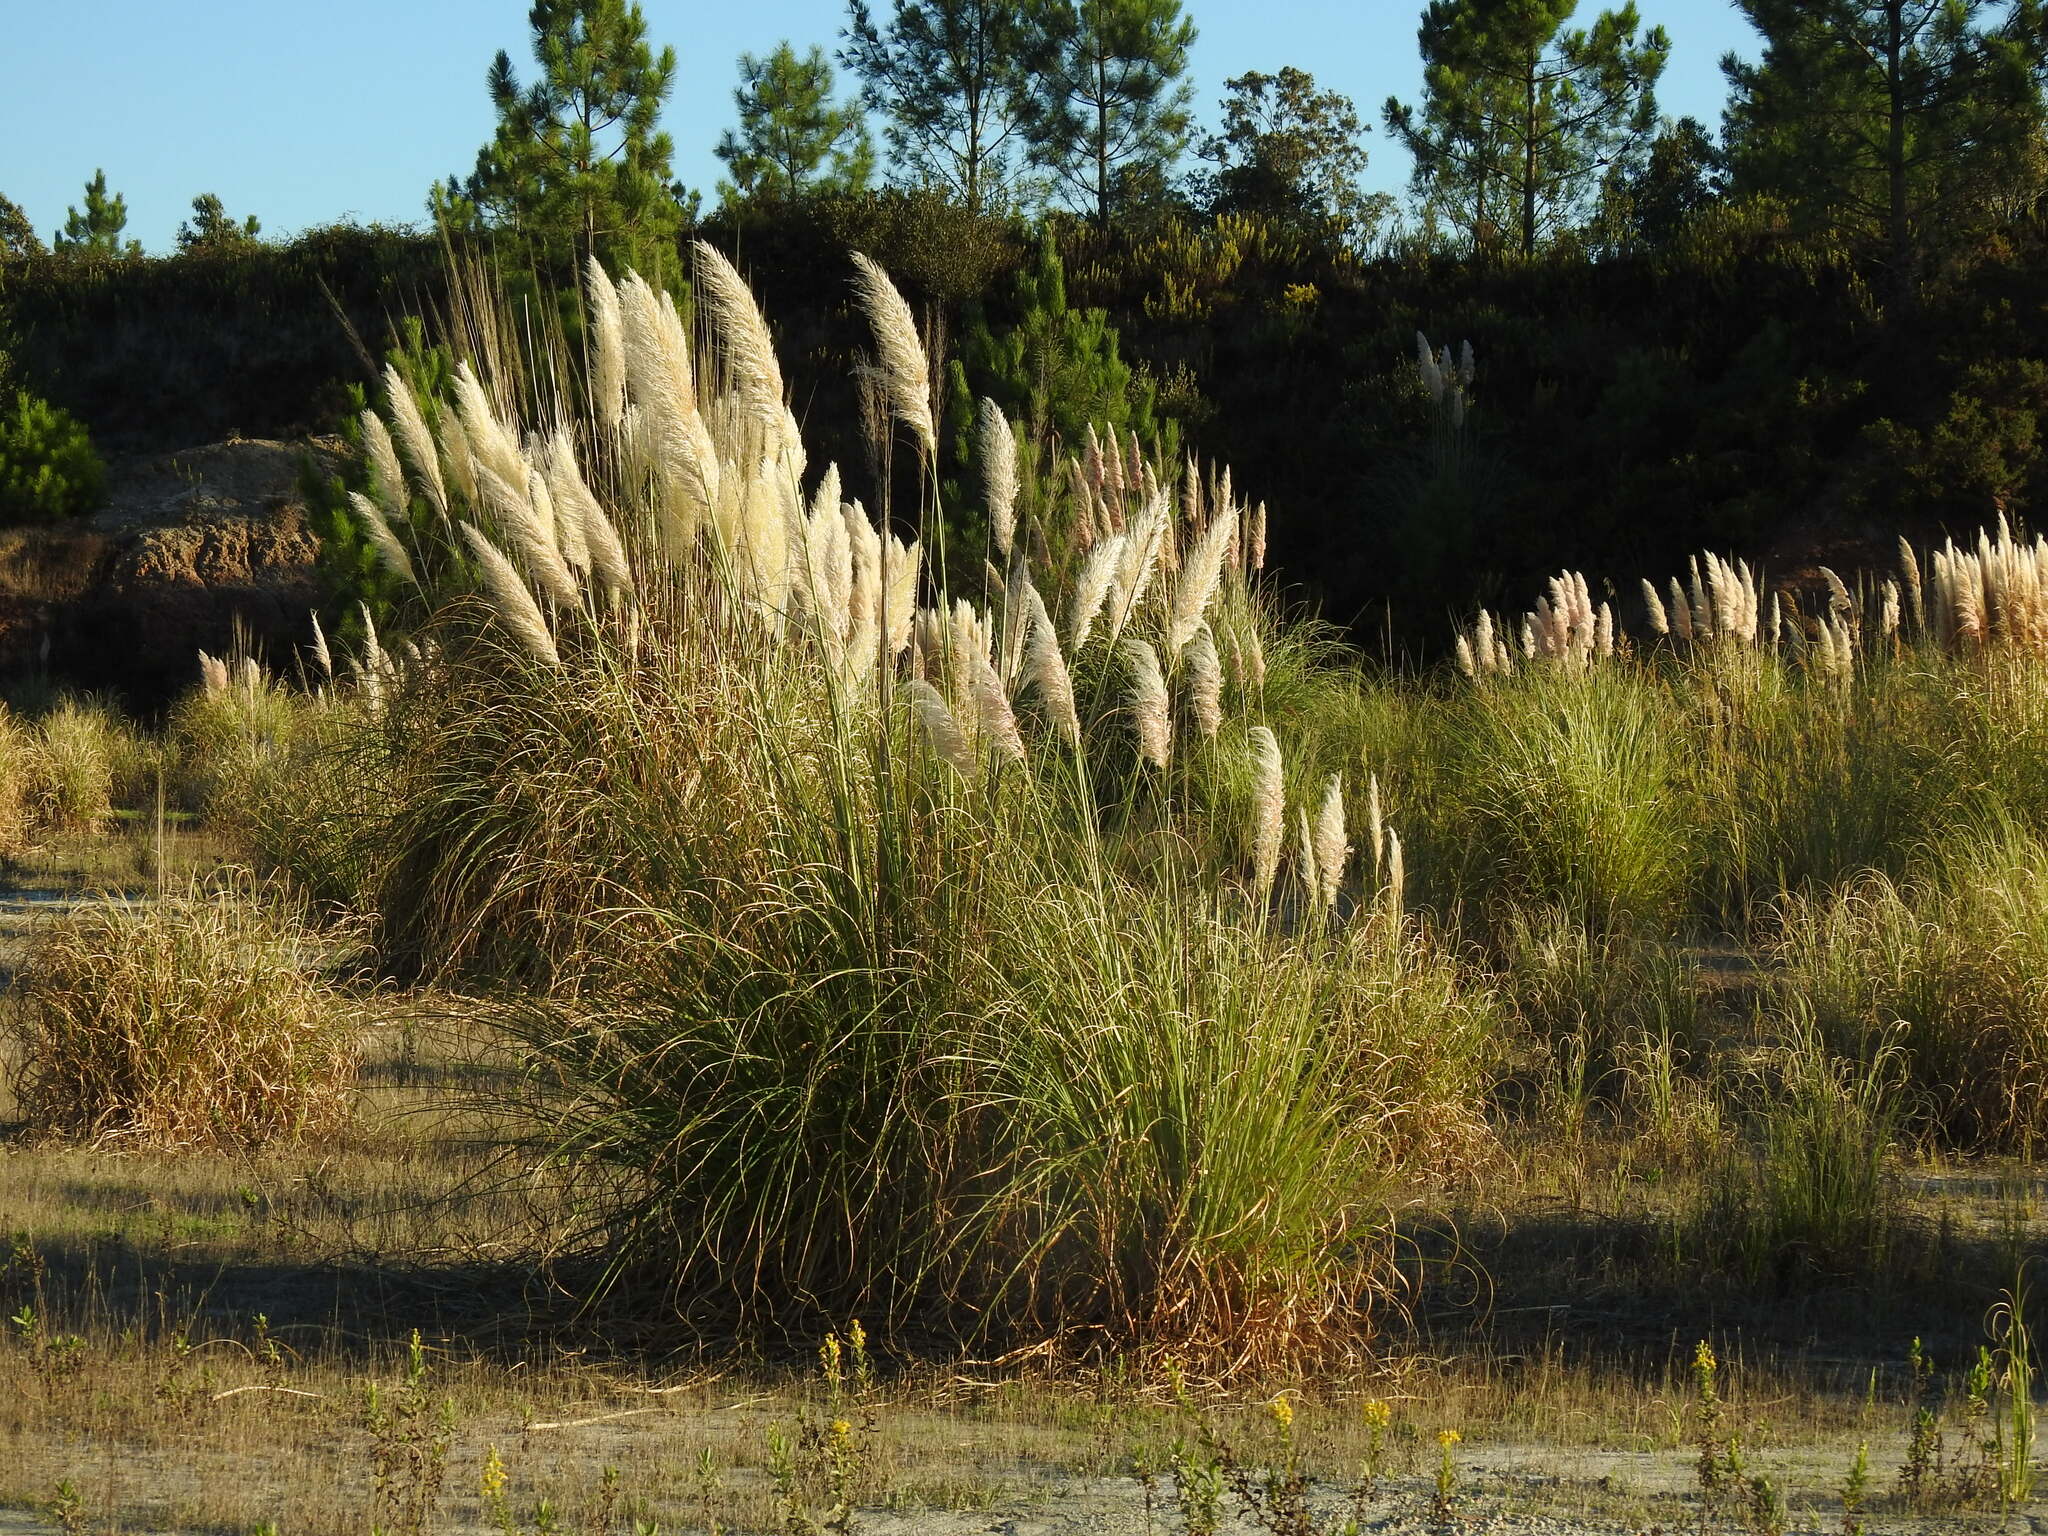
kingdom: Plantae
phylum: Tracheophyta
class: Liliopsida
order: Poales
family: Poaceae
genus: Cortaderia
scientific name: Cortaderia selloana
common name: Uruguayan pampas grass
